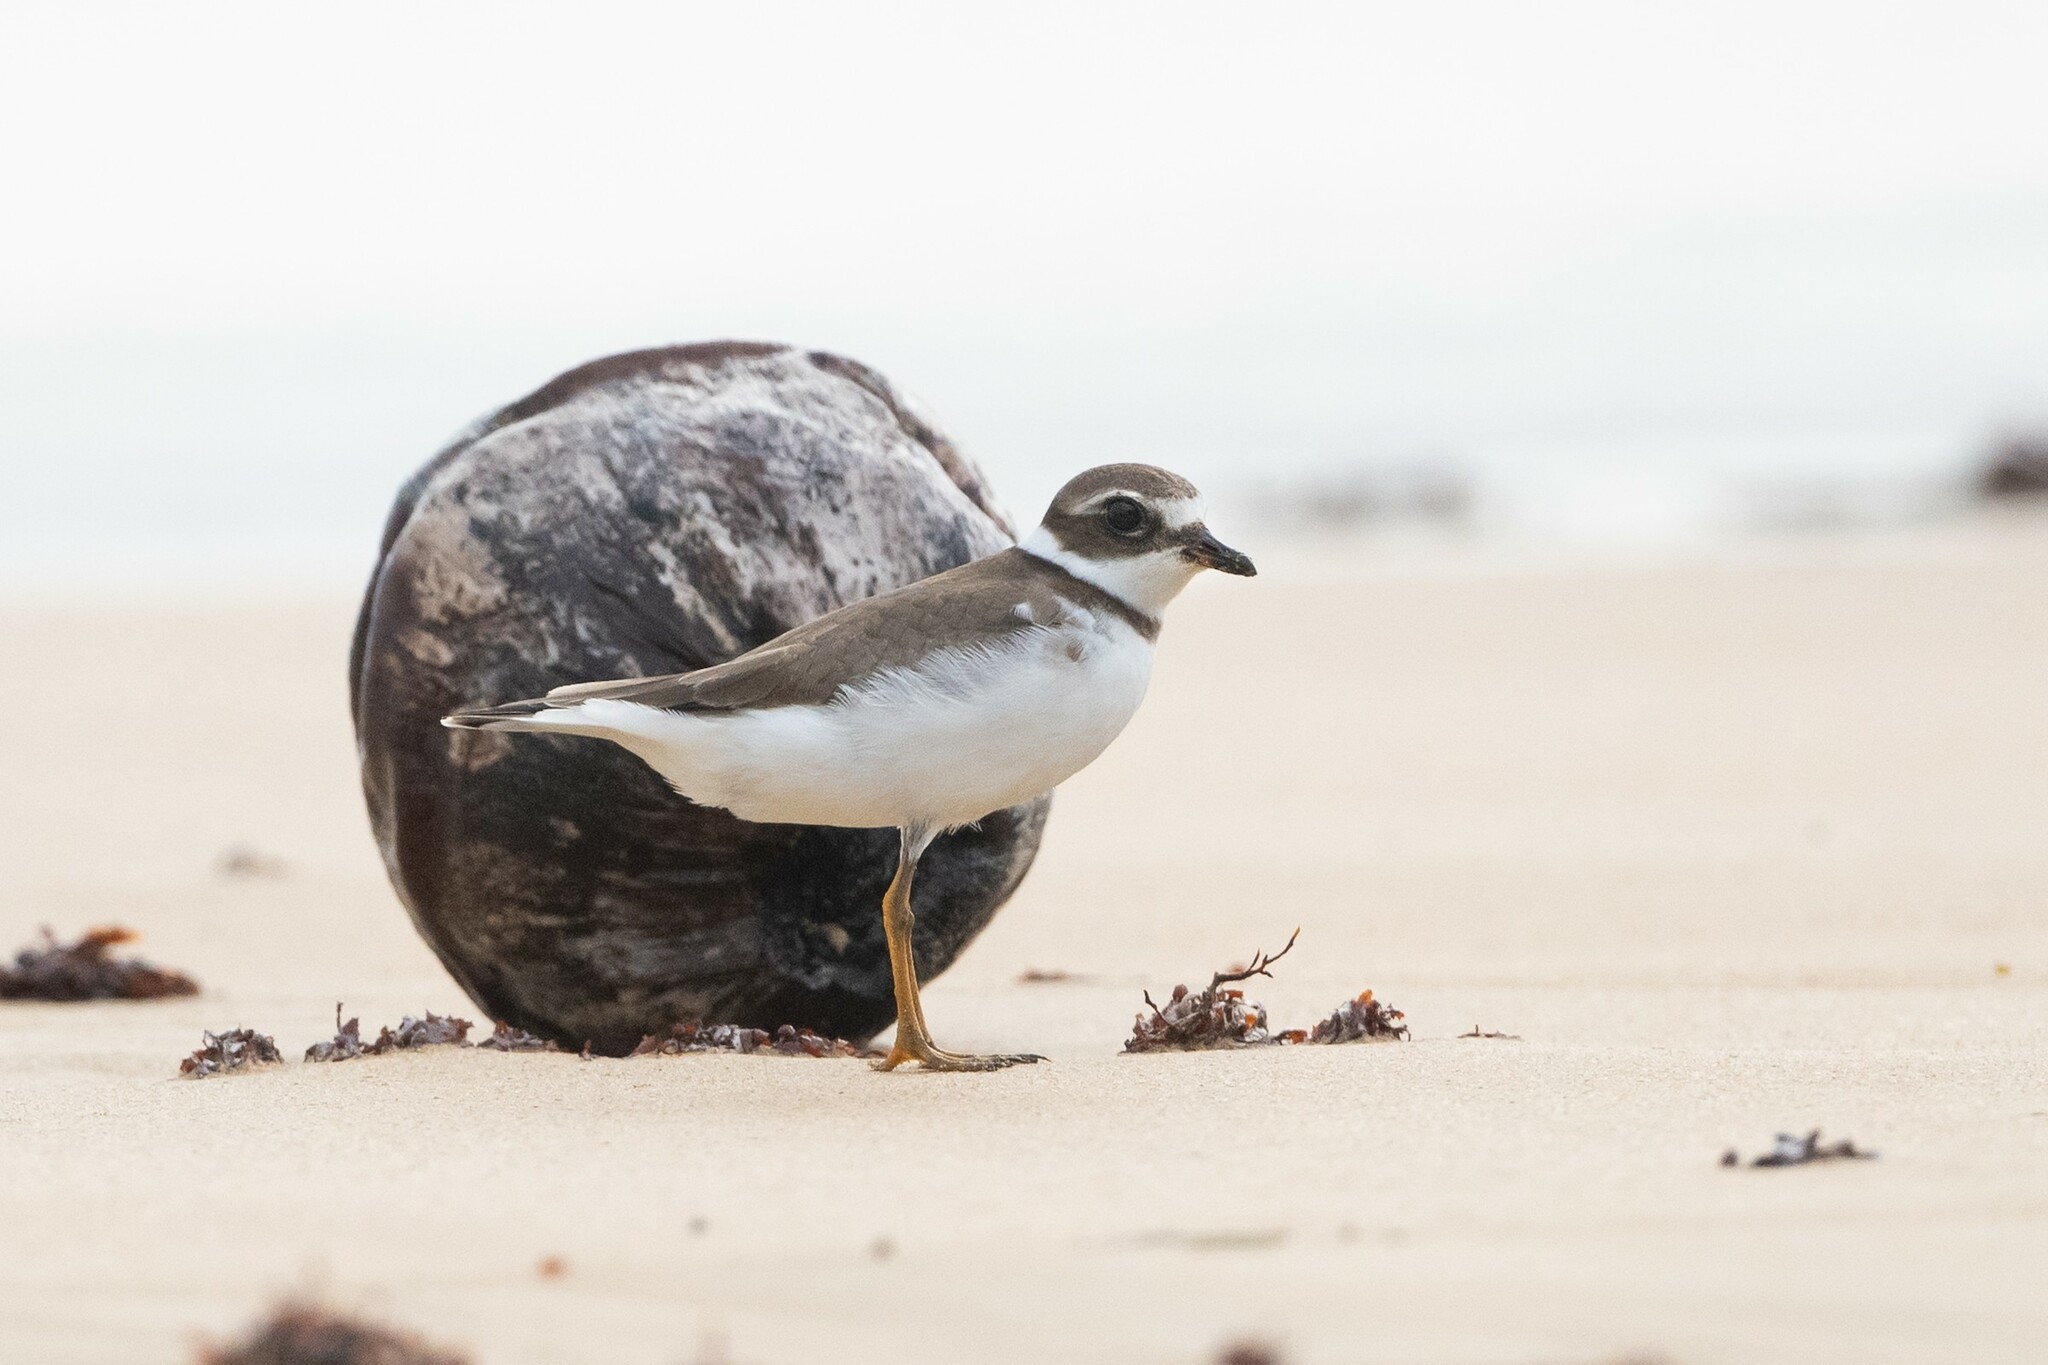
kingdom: Animalia
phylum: Chordata
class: Aves
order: Charadriiformes
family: Charadriidae
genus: Charadrius
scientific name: Charadrius semipalmatus
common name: Semipalmated plover
